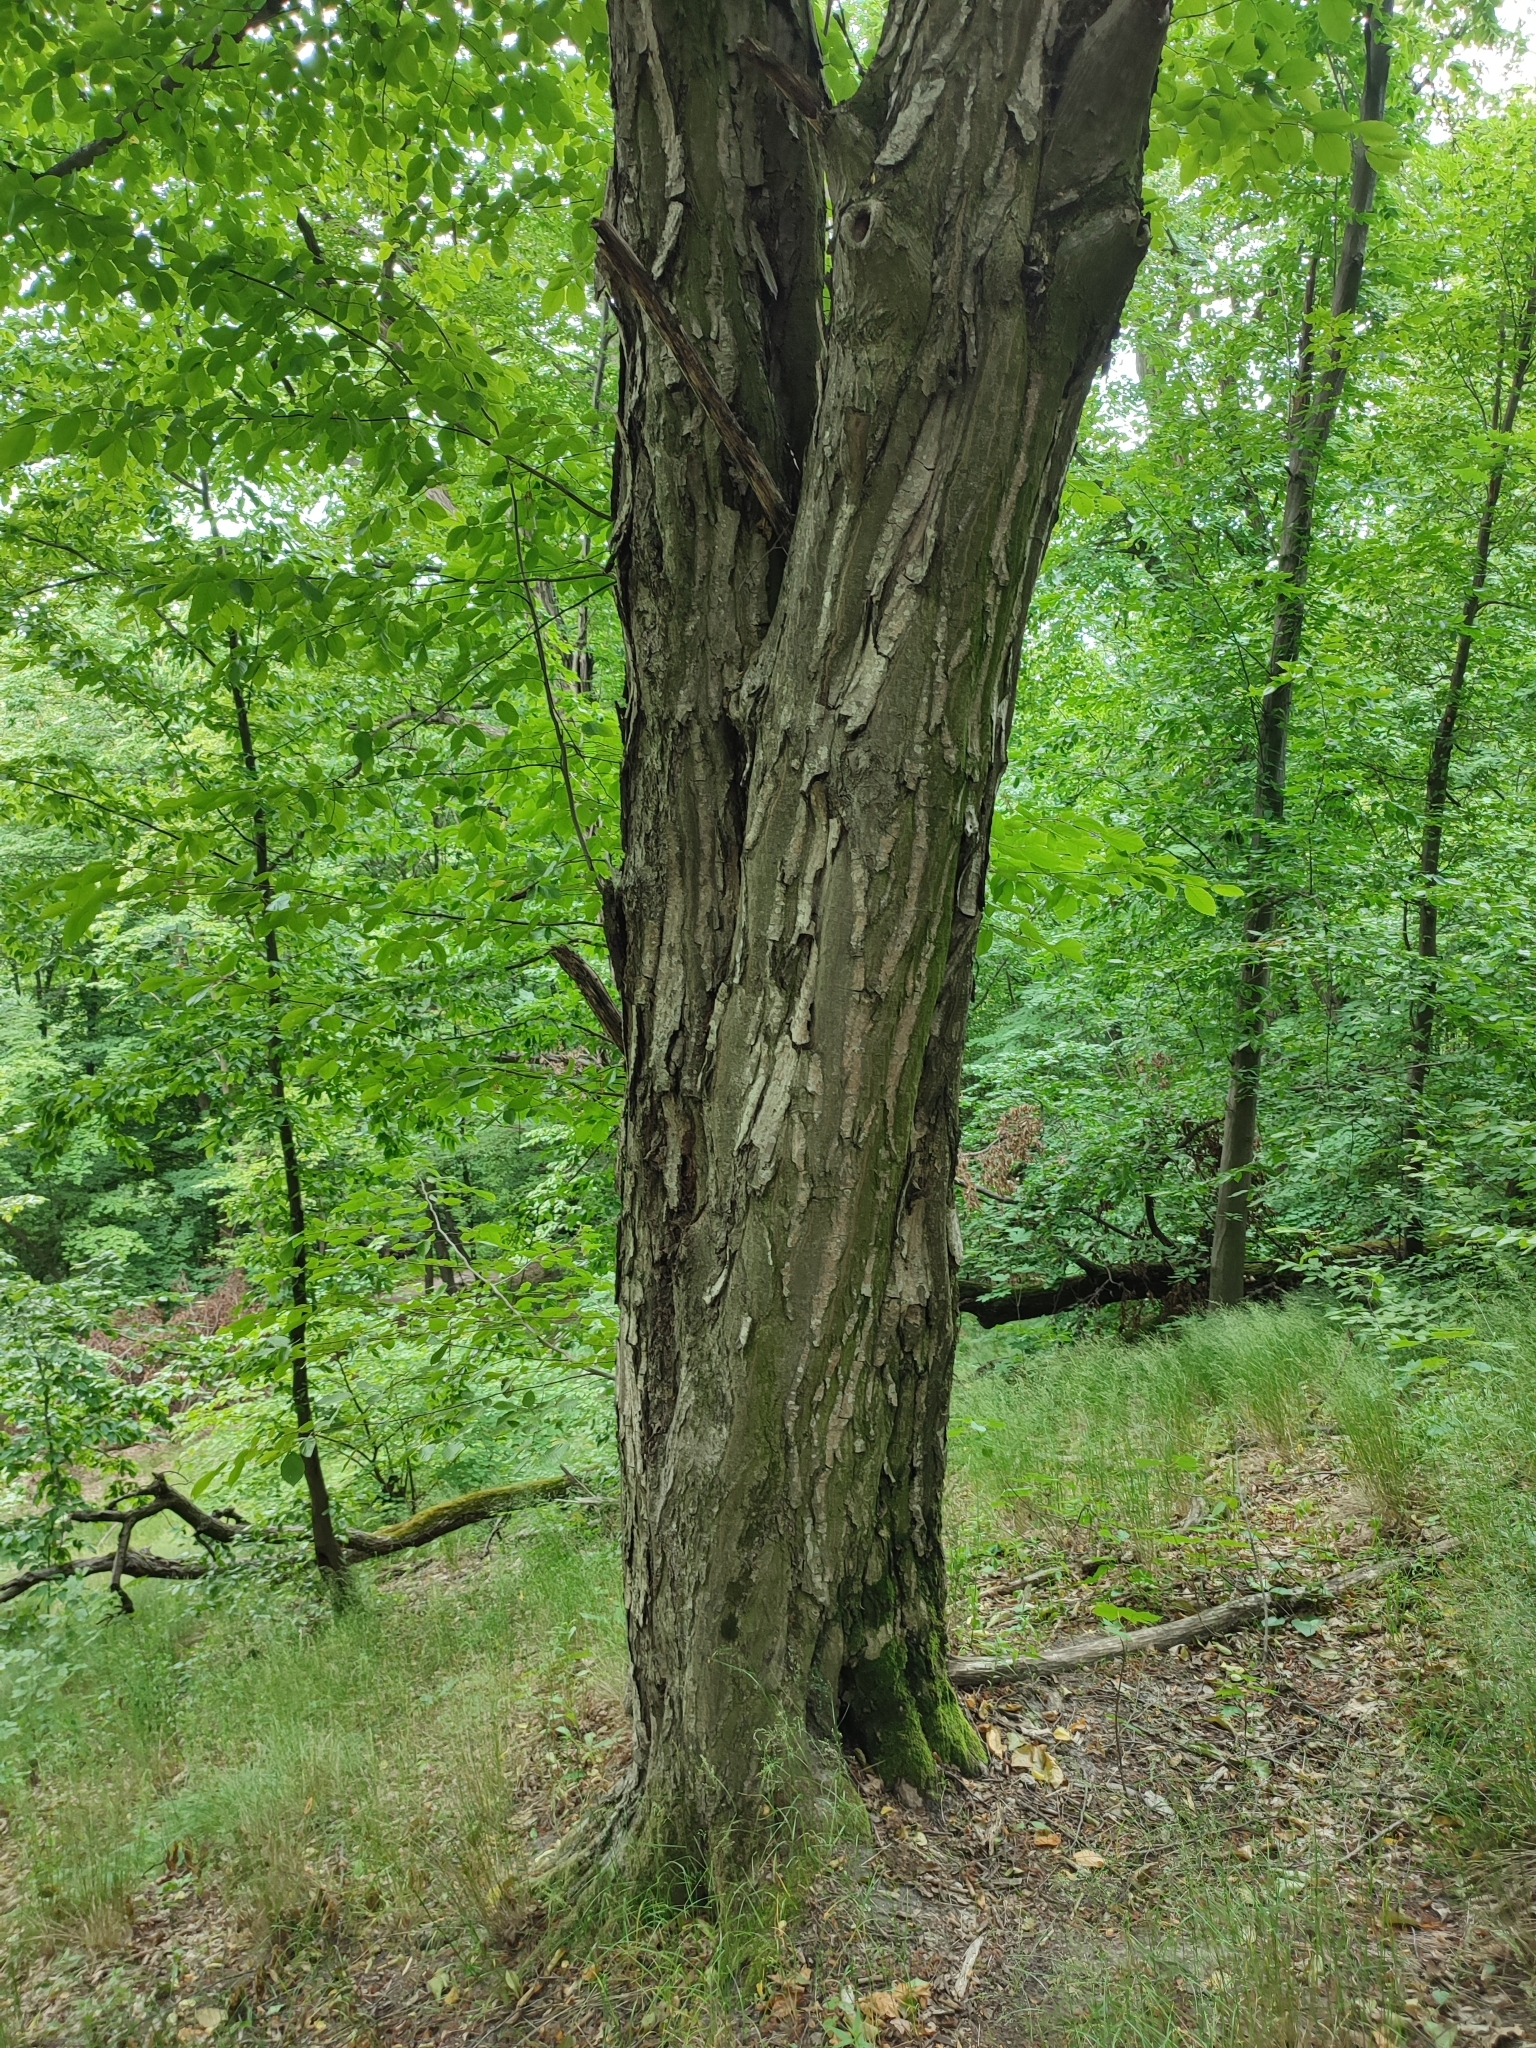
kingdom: Plantae
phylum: Tracheophyta
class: Magnoliopsida
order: Fagales
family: Betulaceae
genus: Carpinus
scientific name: Carpinus betulus
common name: Hornbeam
